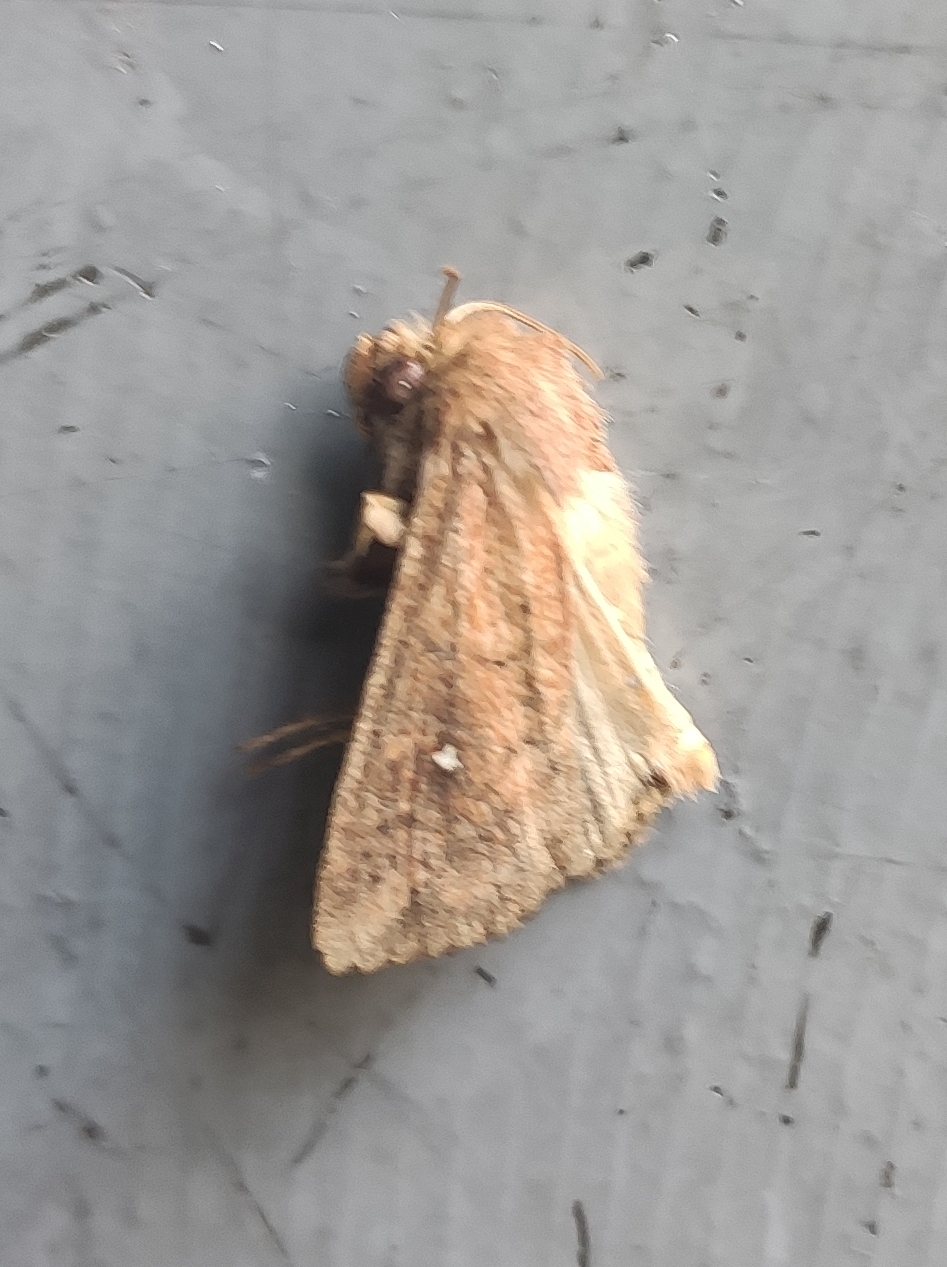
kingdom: Animalia
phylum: Arthropoda
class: Insecta
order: Lepidoptera
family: Noctuidae
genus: Mythimna
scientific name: Mythimna albipuncta
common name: White-point
